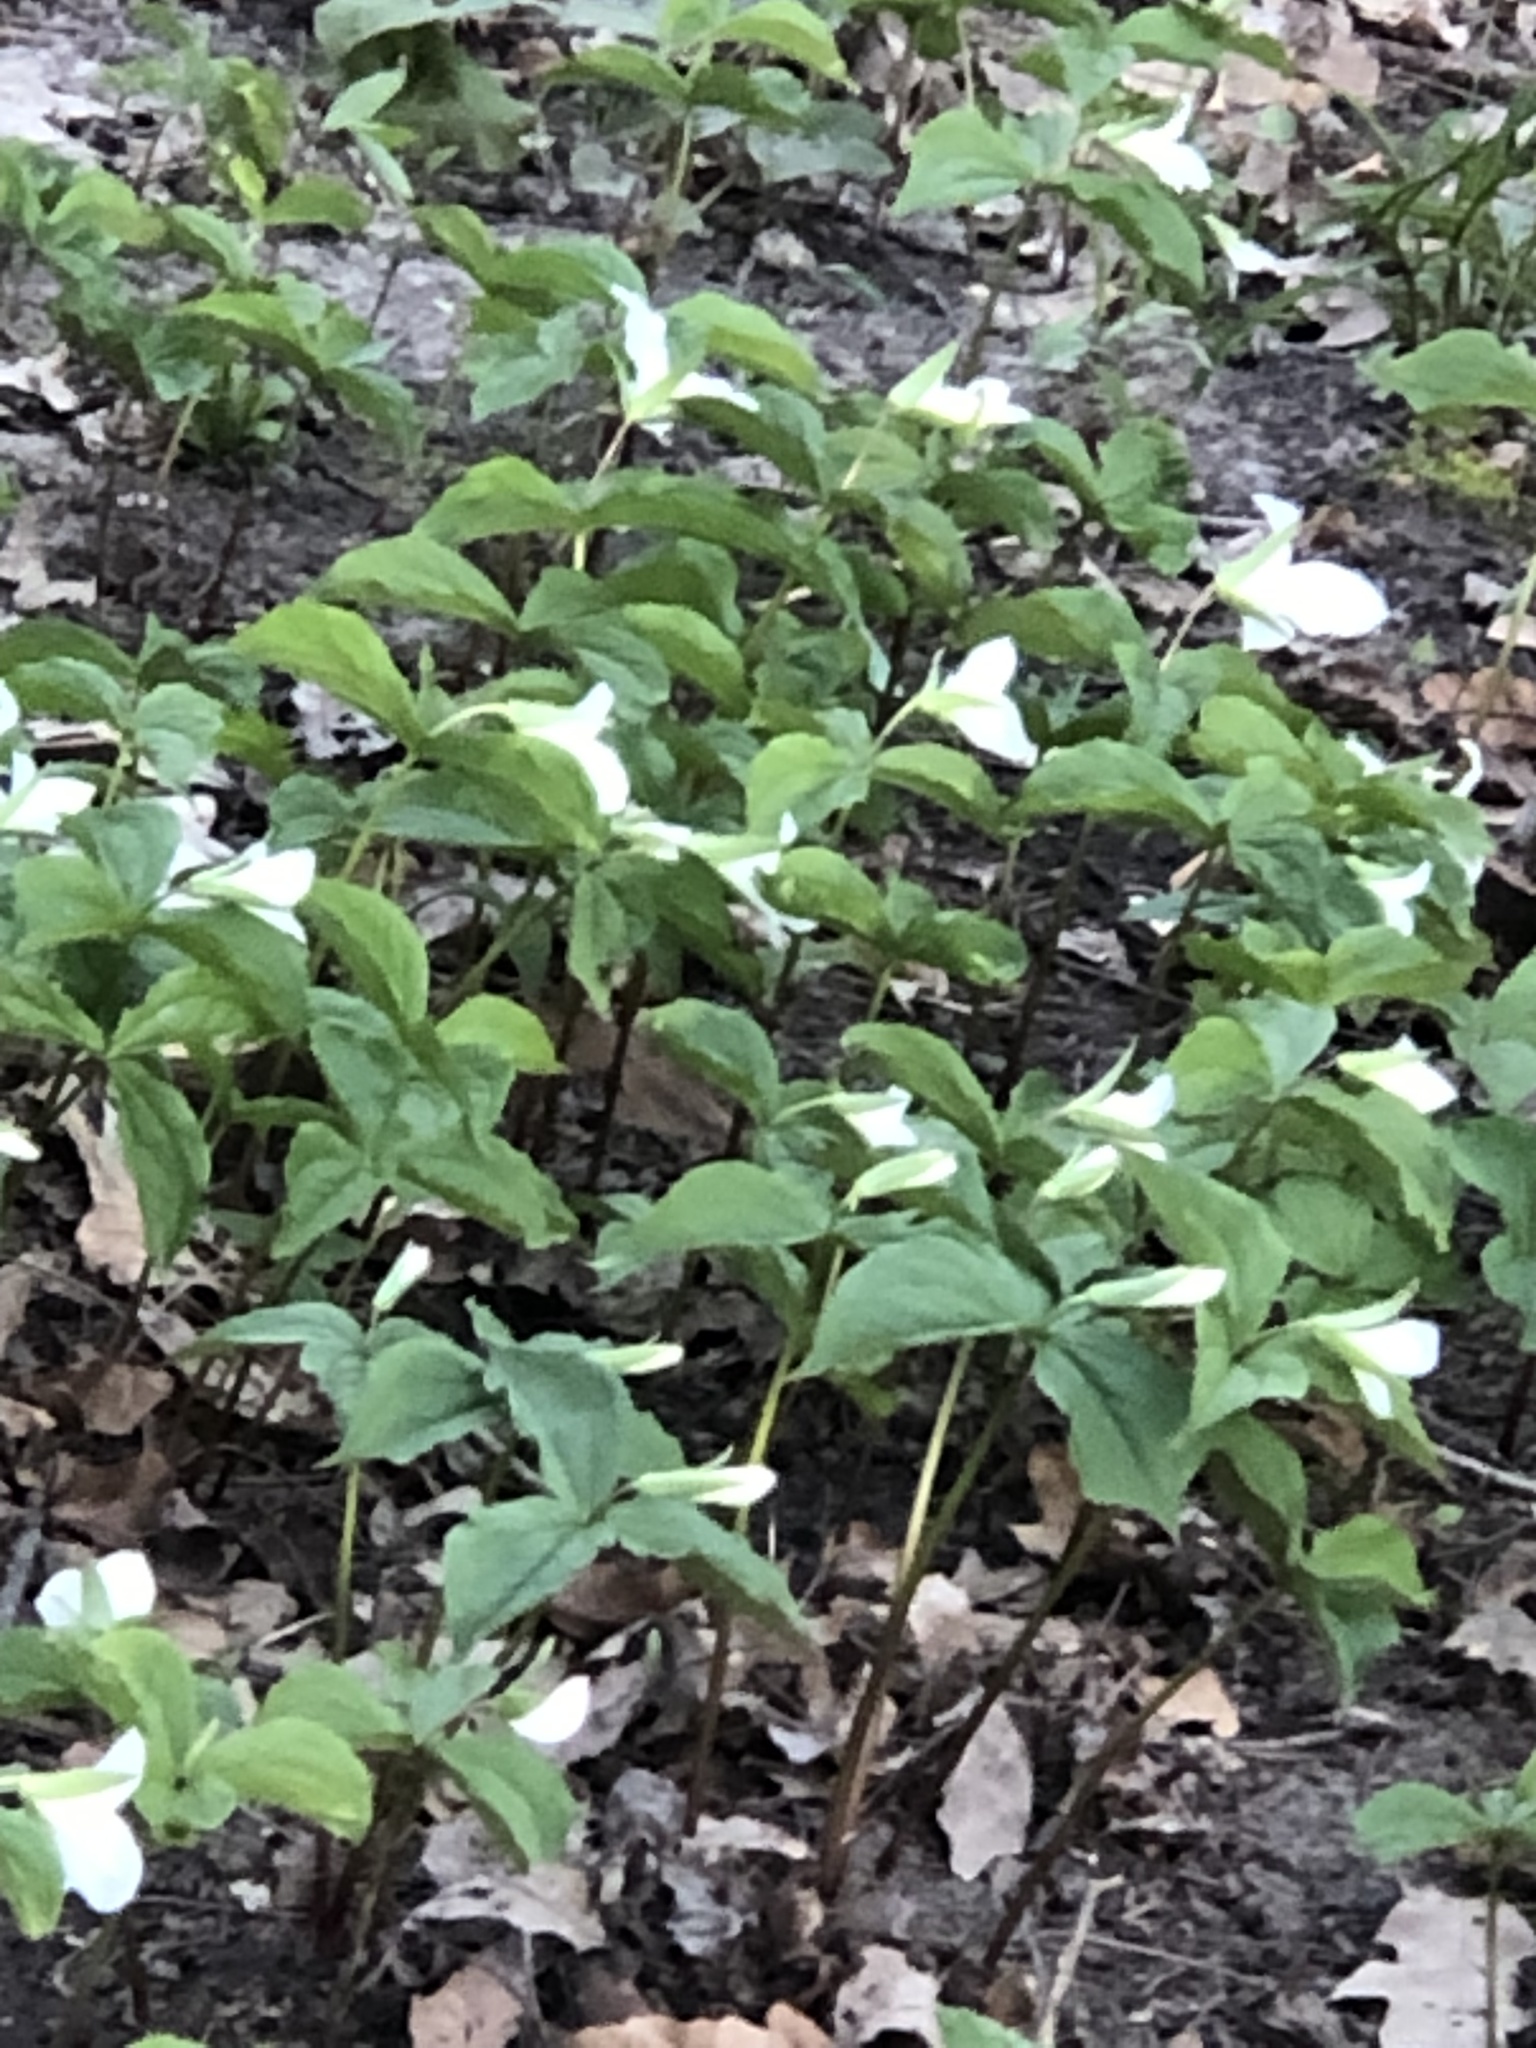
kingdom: Plantae
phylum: Tracheophyta
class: Liliopsida
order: Liliales
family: Melanthiaceae
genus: Trillium
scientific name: Trillium grandiflorum
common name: Great white trillium
